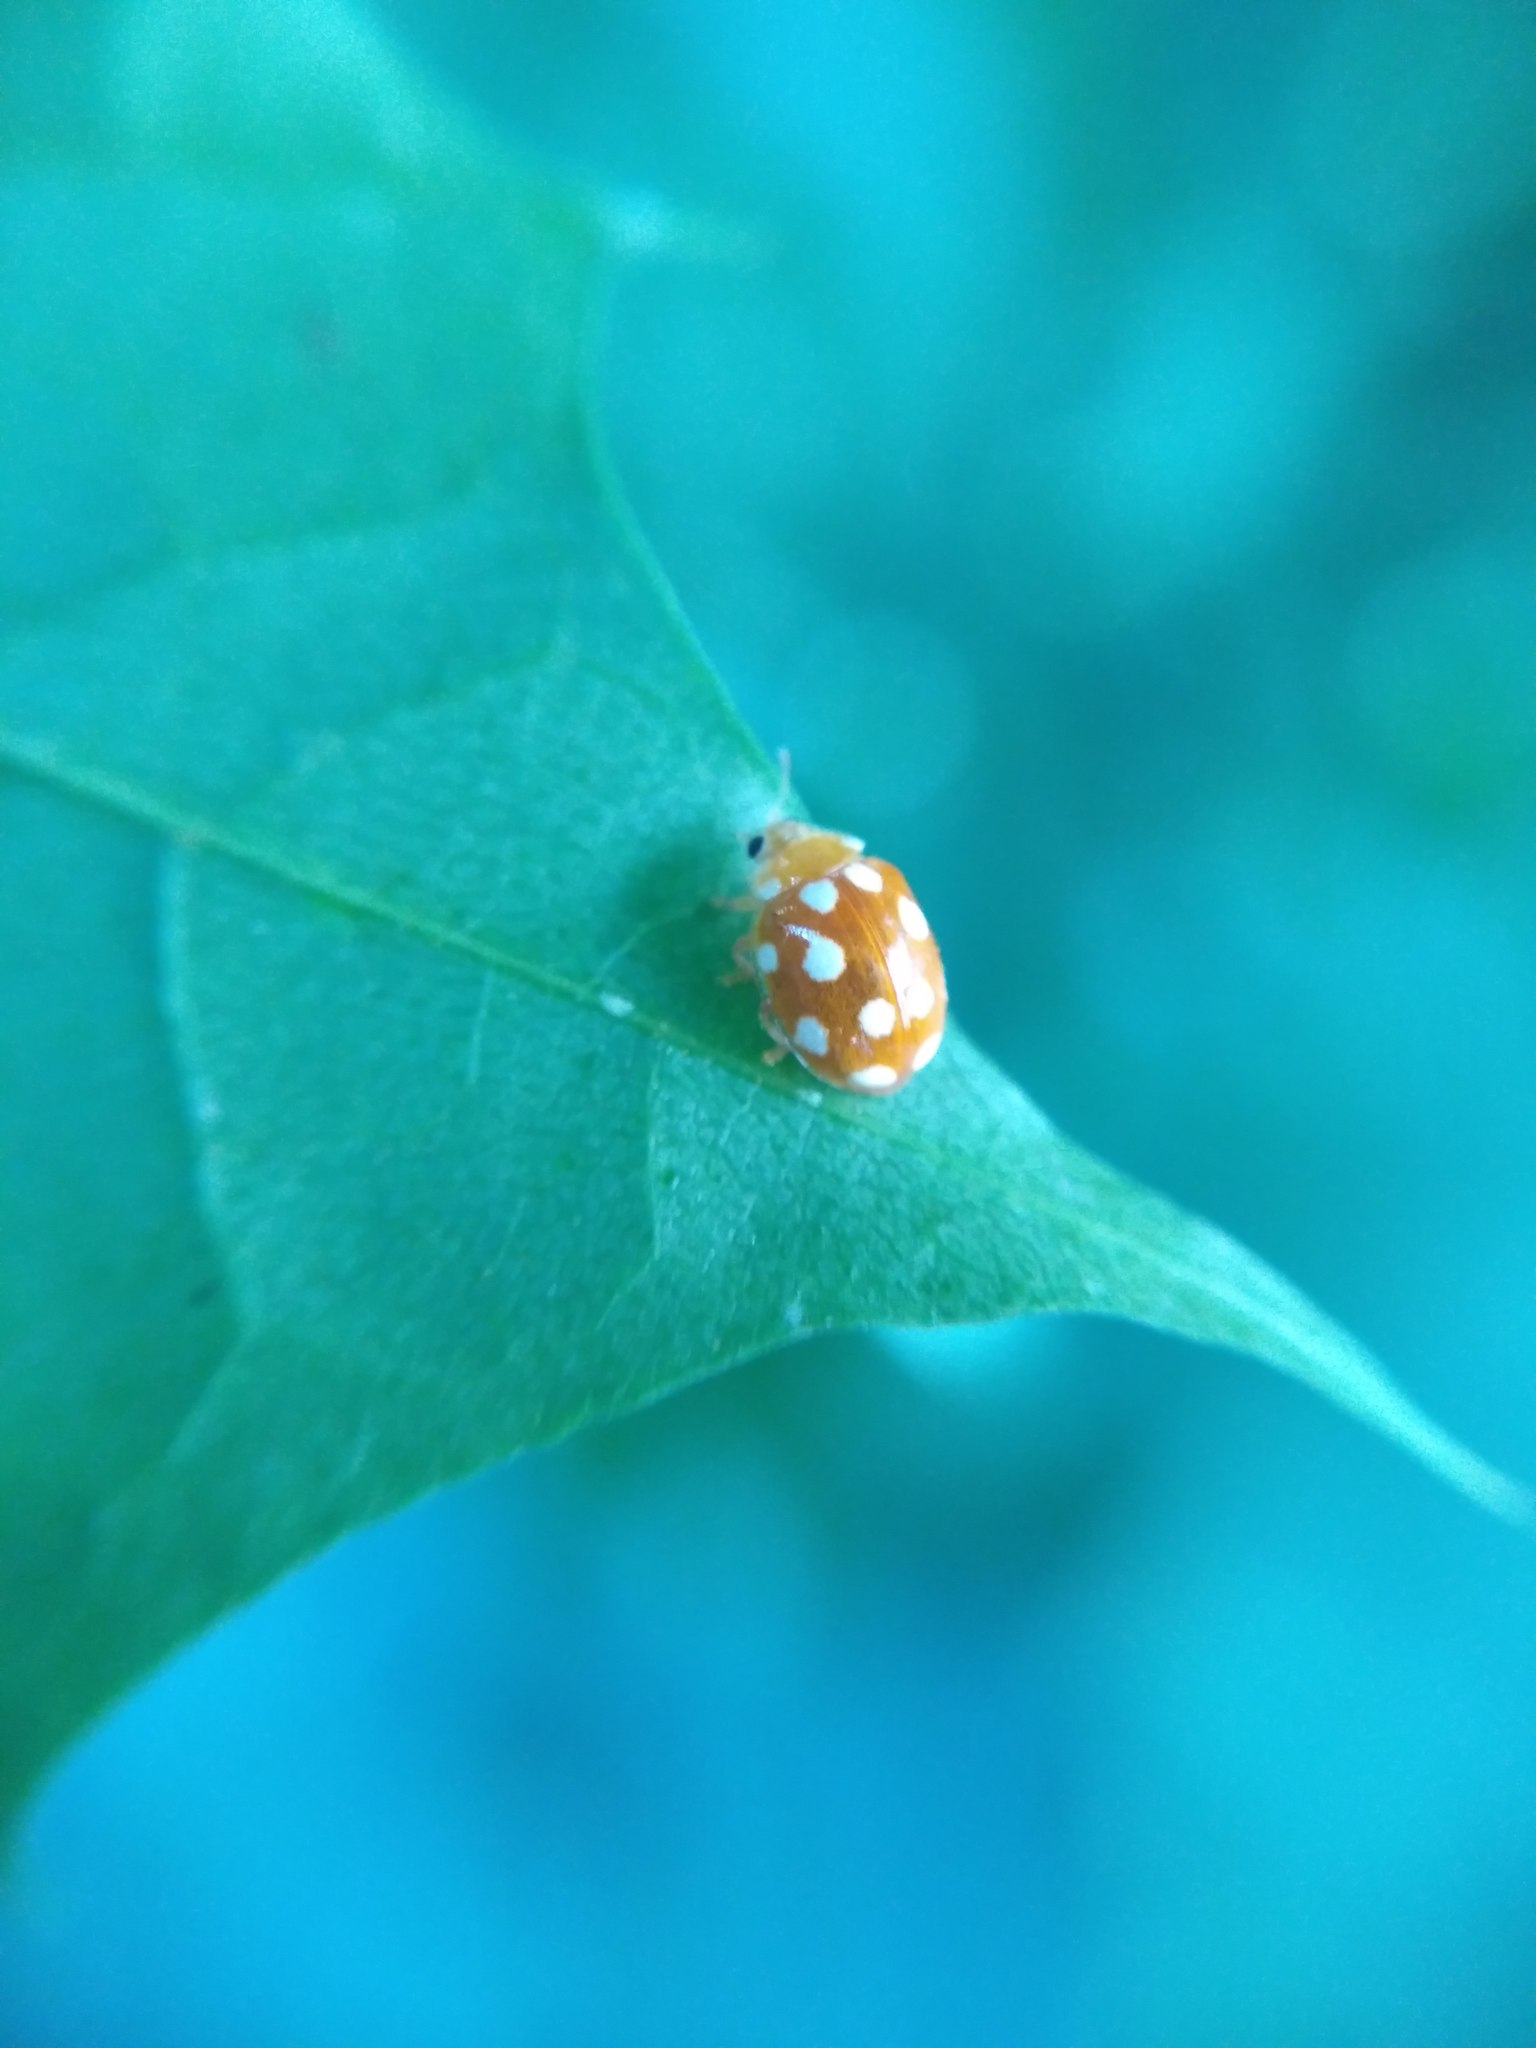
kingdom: Animalia
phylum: Arthropoda
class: Insecta
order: Coleoptera
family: Coccinellidae
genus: Vibidia
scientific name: Vibidia duodecimguttata
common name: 12-spot ladybird
